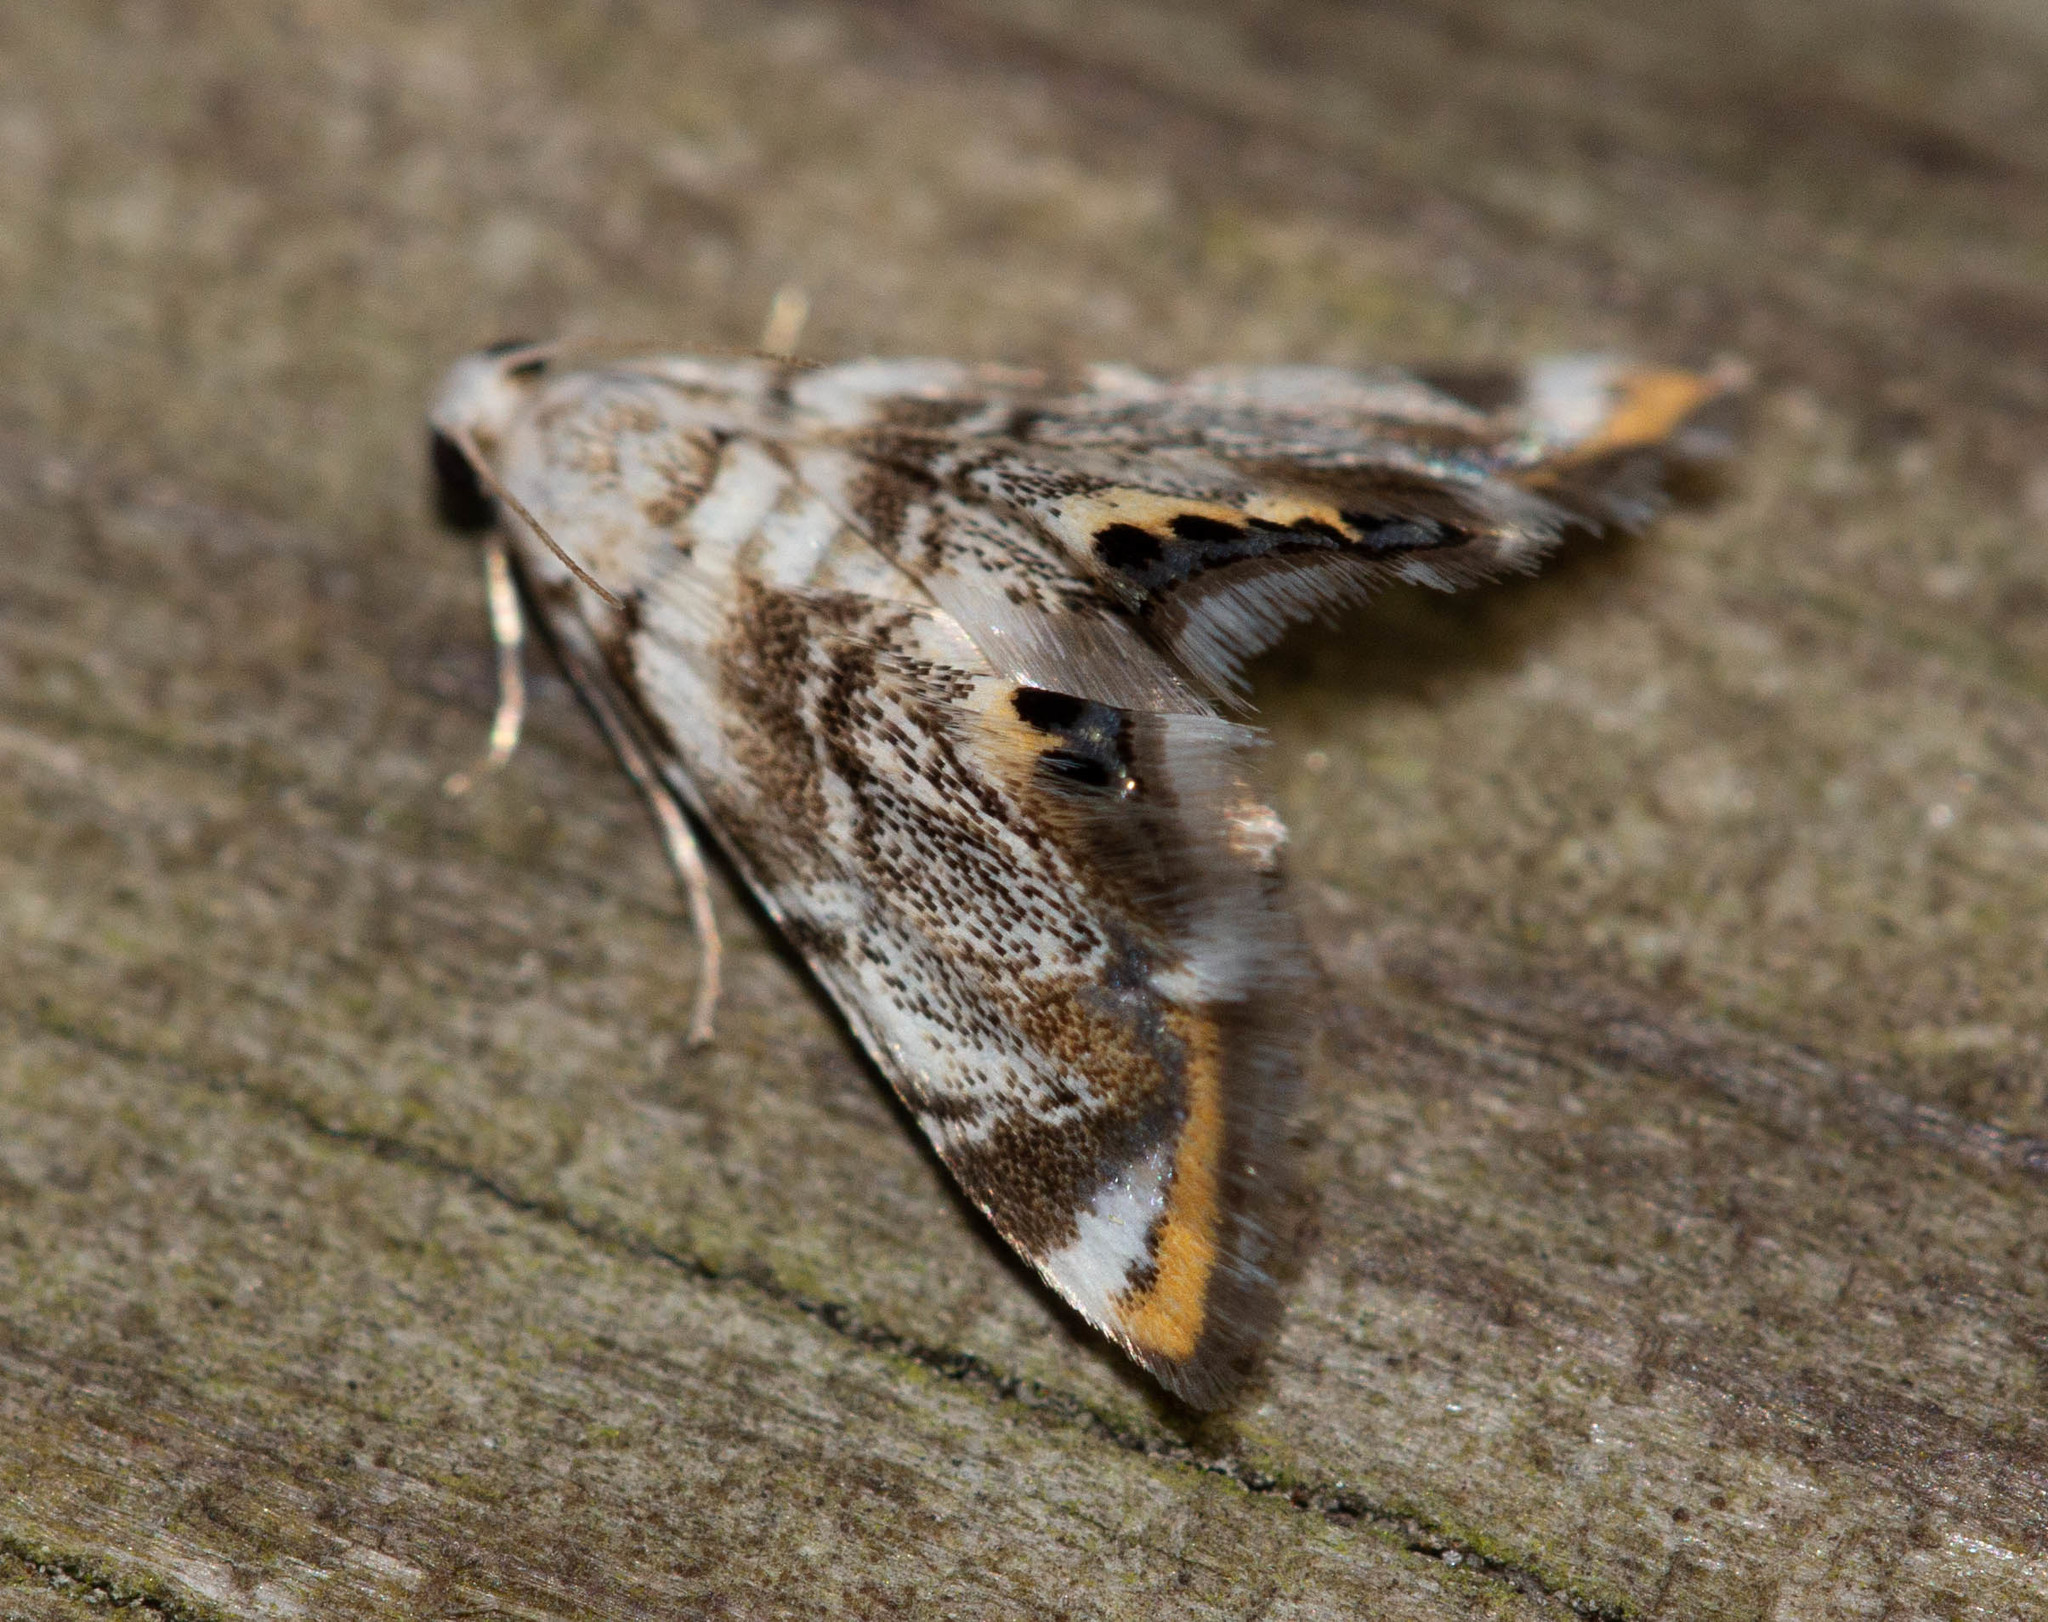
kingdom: Animalia
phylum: Arthropoda
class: Insecta
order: Lepidoptera
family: Crambidae
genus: Eoparargyractis
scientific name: Eoparargyractis irroratalis
